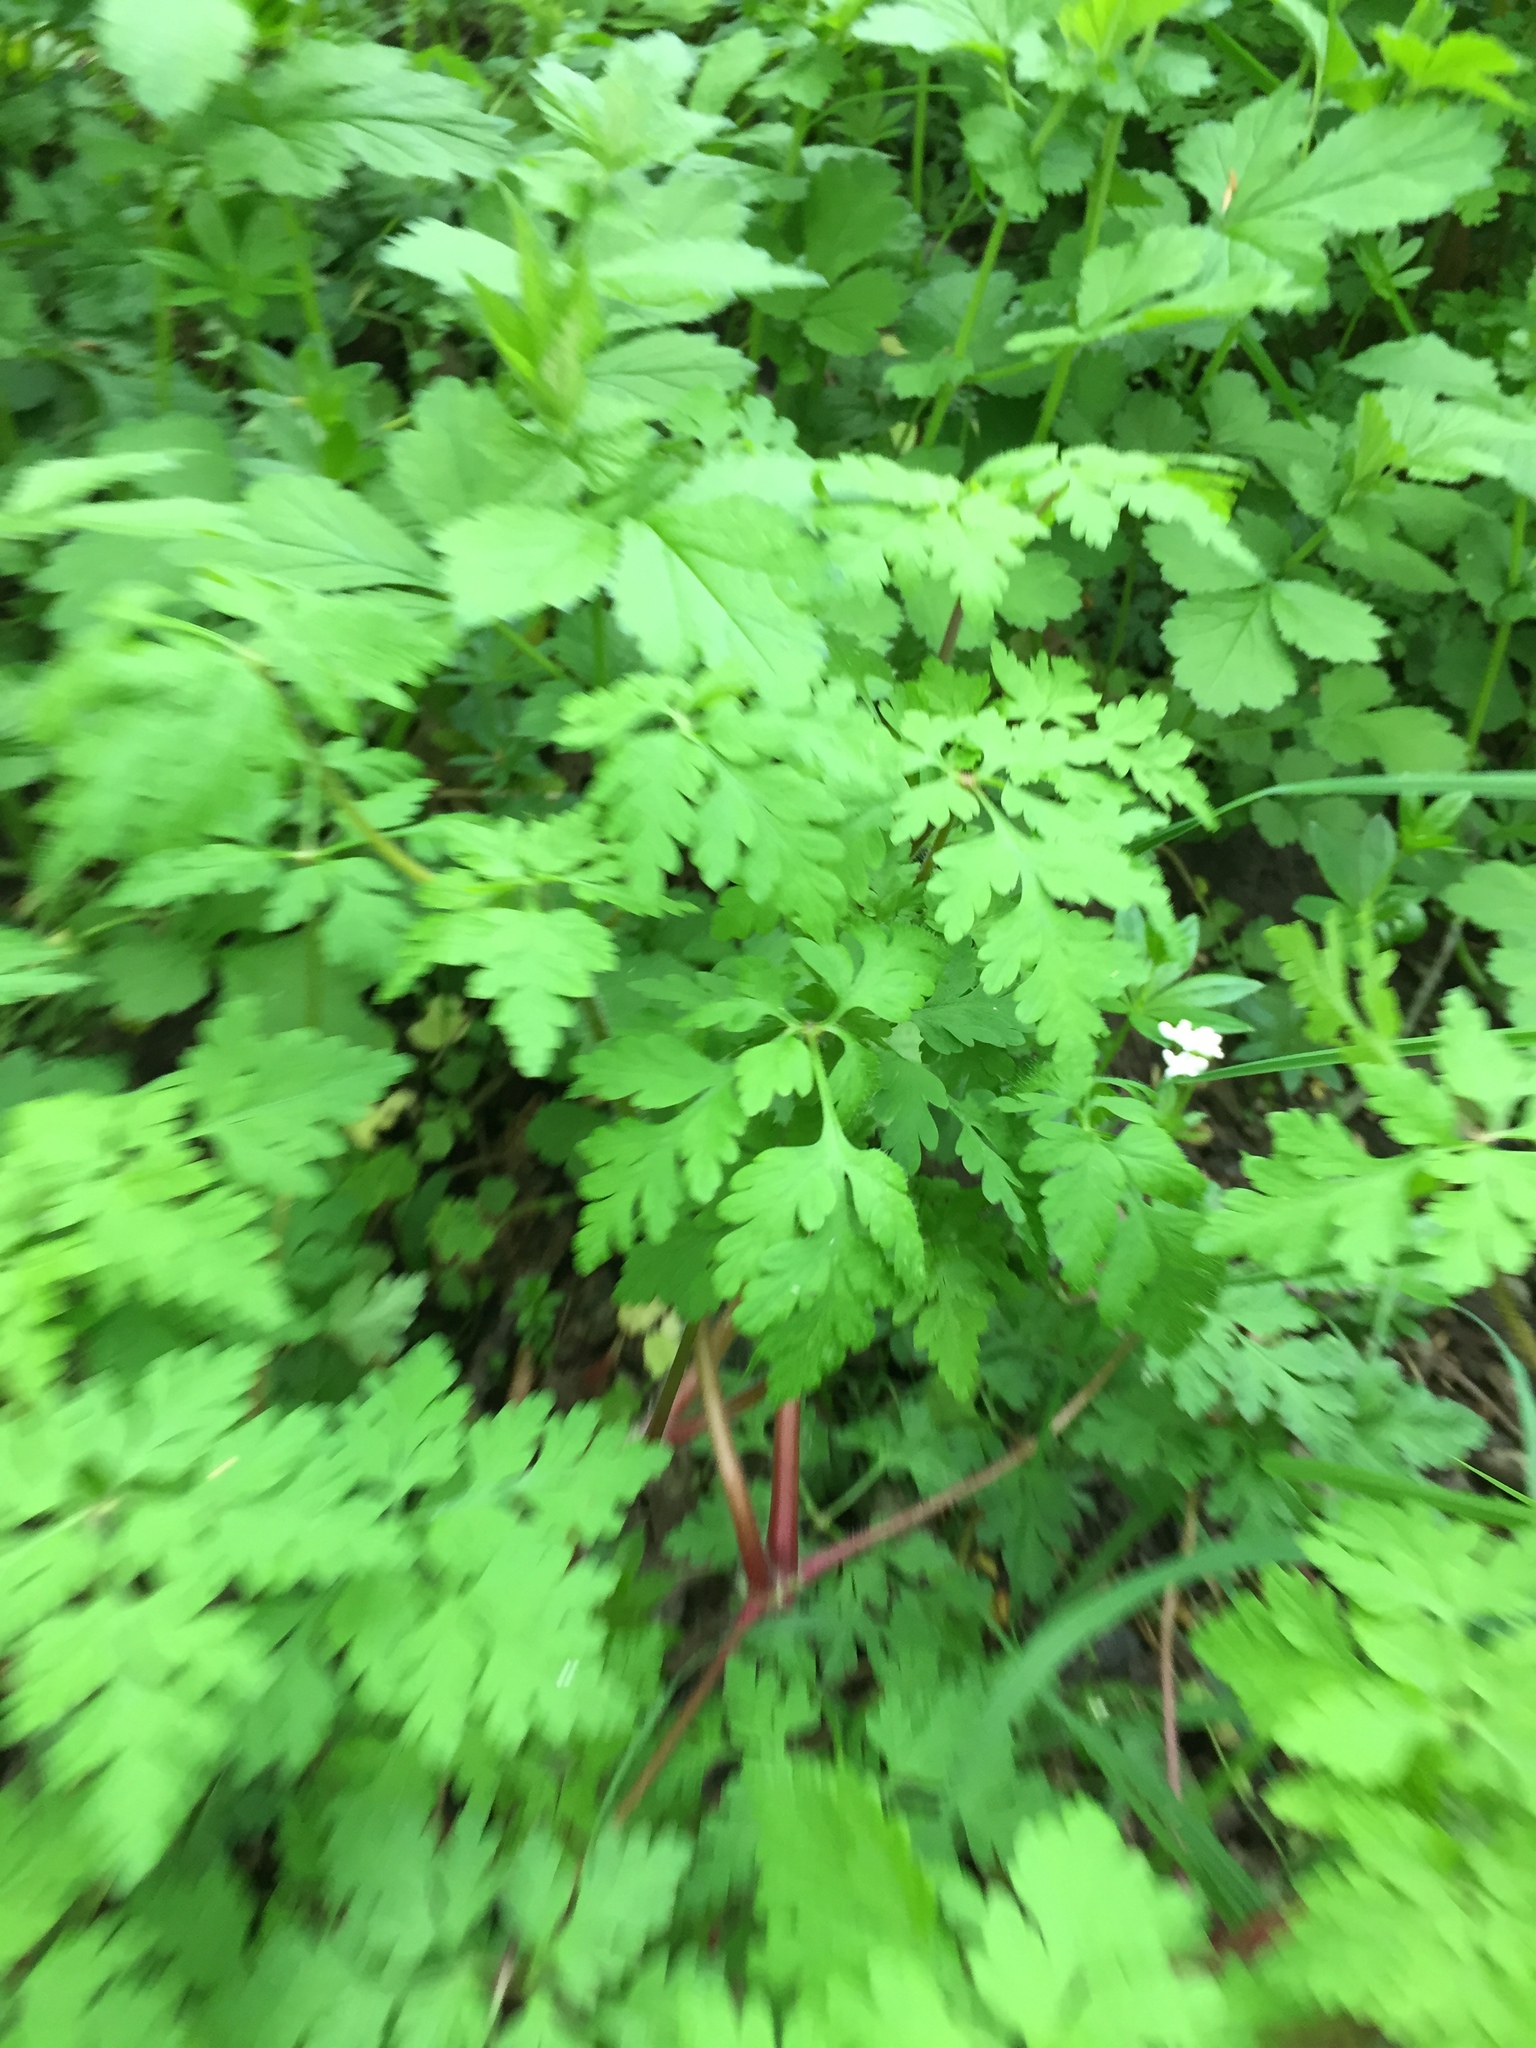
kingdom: Plantae
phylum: Tracheophyta
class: Magnoliopsida
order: Geraniales
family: Geraniaceae
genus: Geranium
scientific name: Geranium robertianum
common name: Herb-robert
